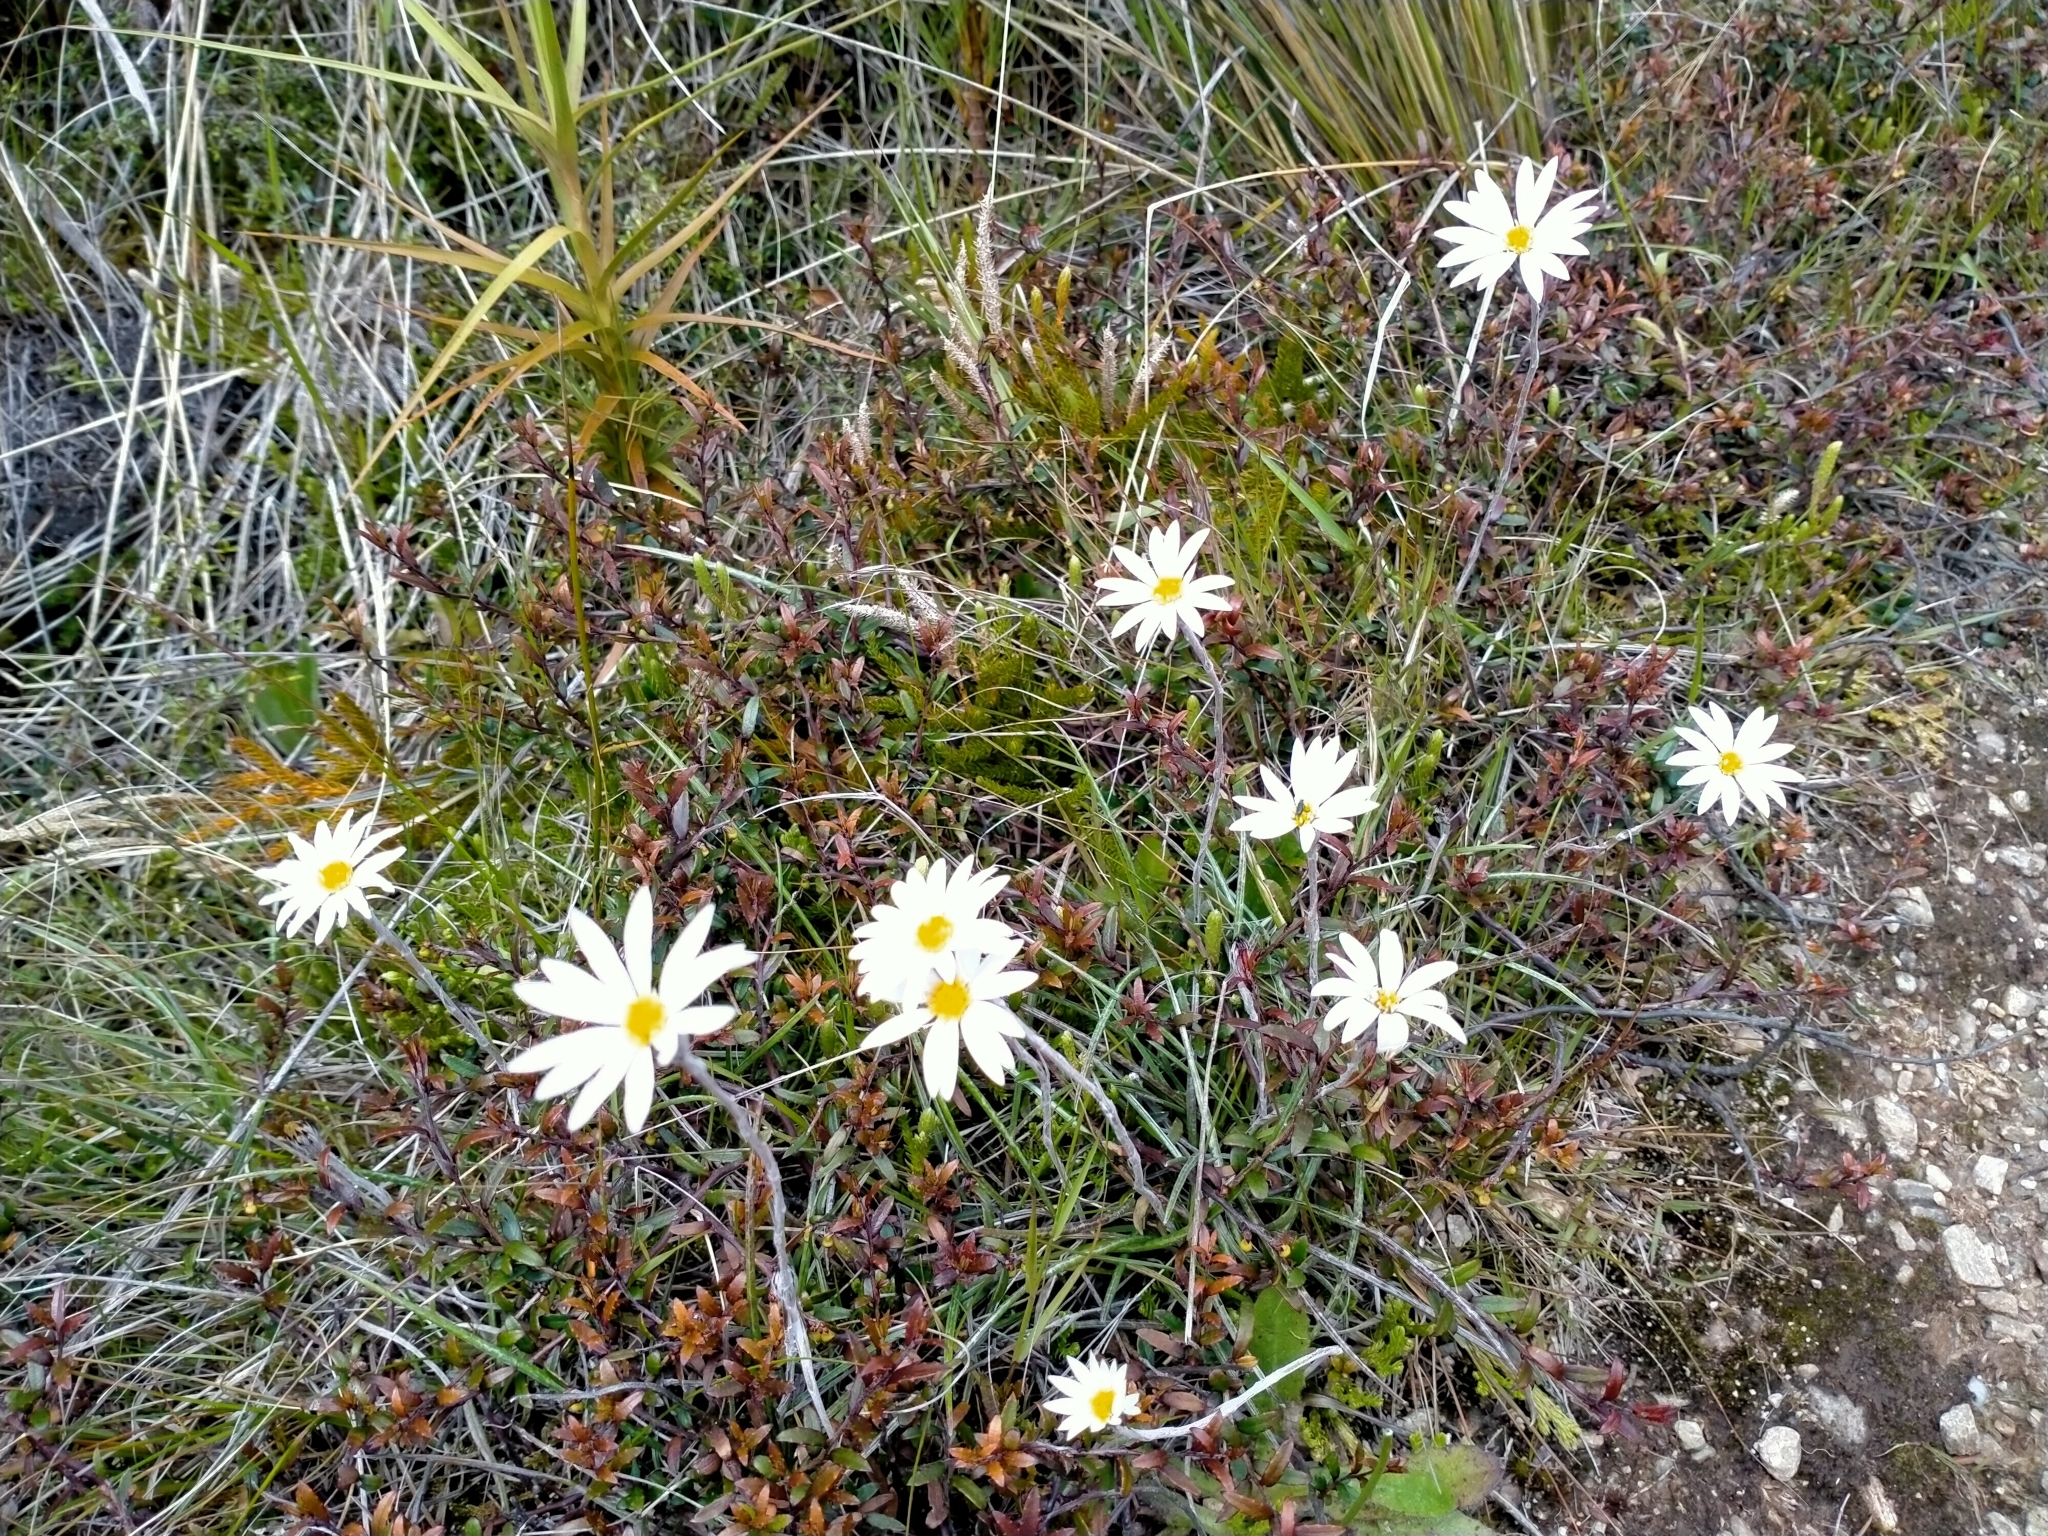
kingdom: Plantae
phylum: Tracheophyta
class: Magnoliopsida
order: Asterales
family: Asteraceae
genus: Celmisia
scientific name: Celmisia gracilenta
